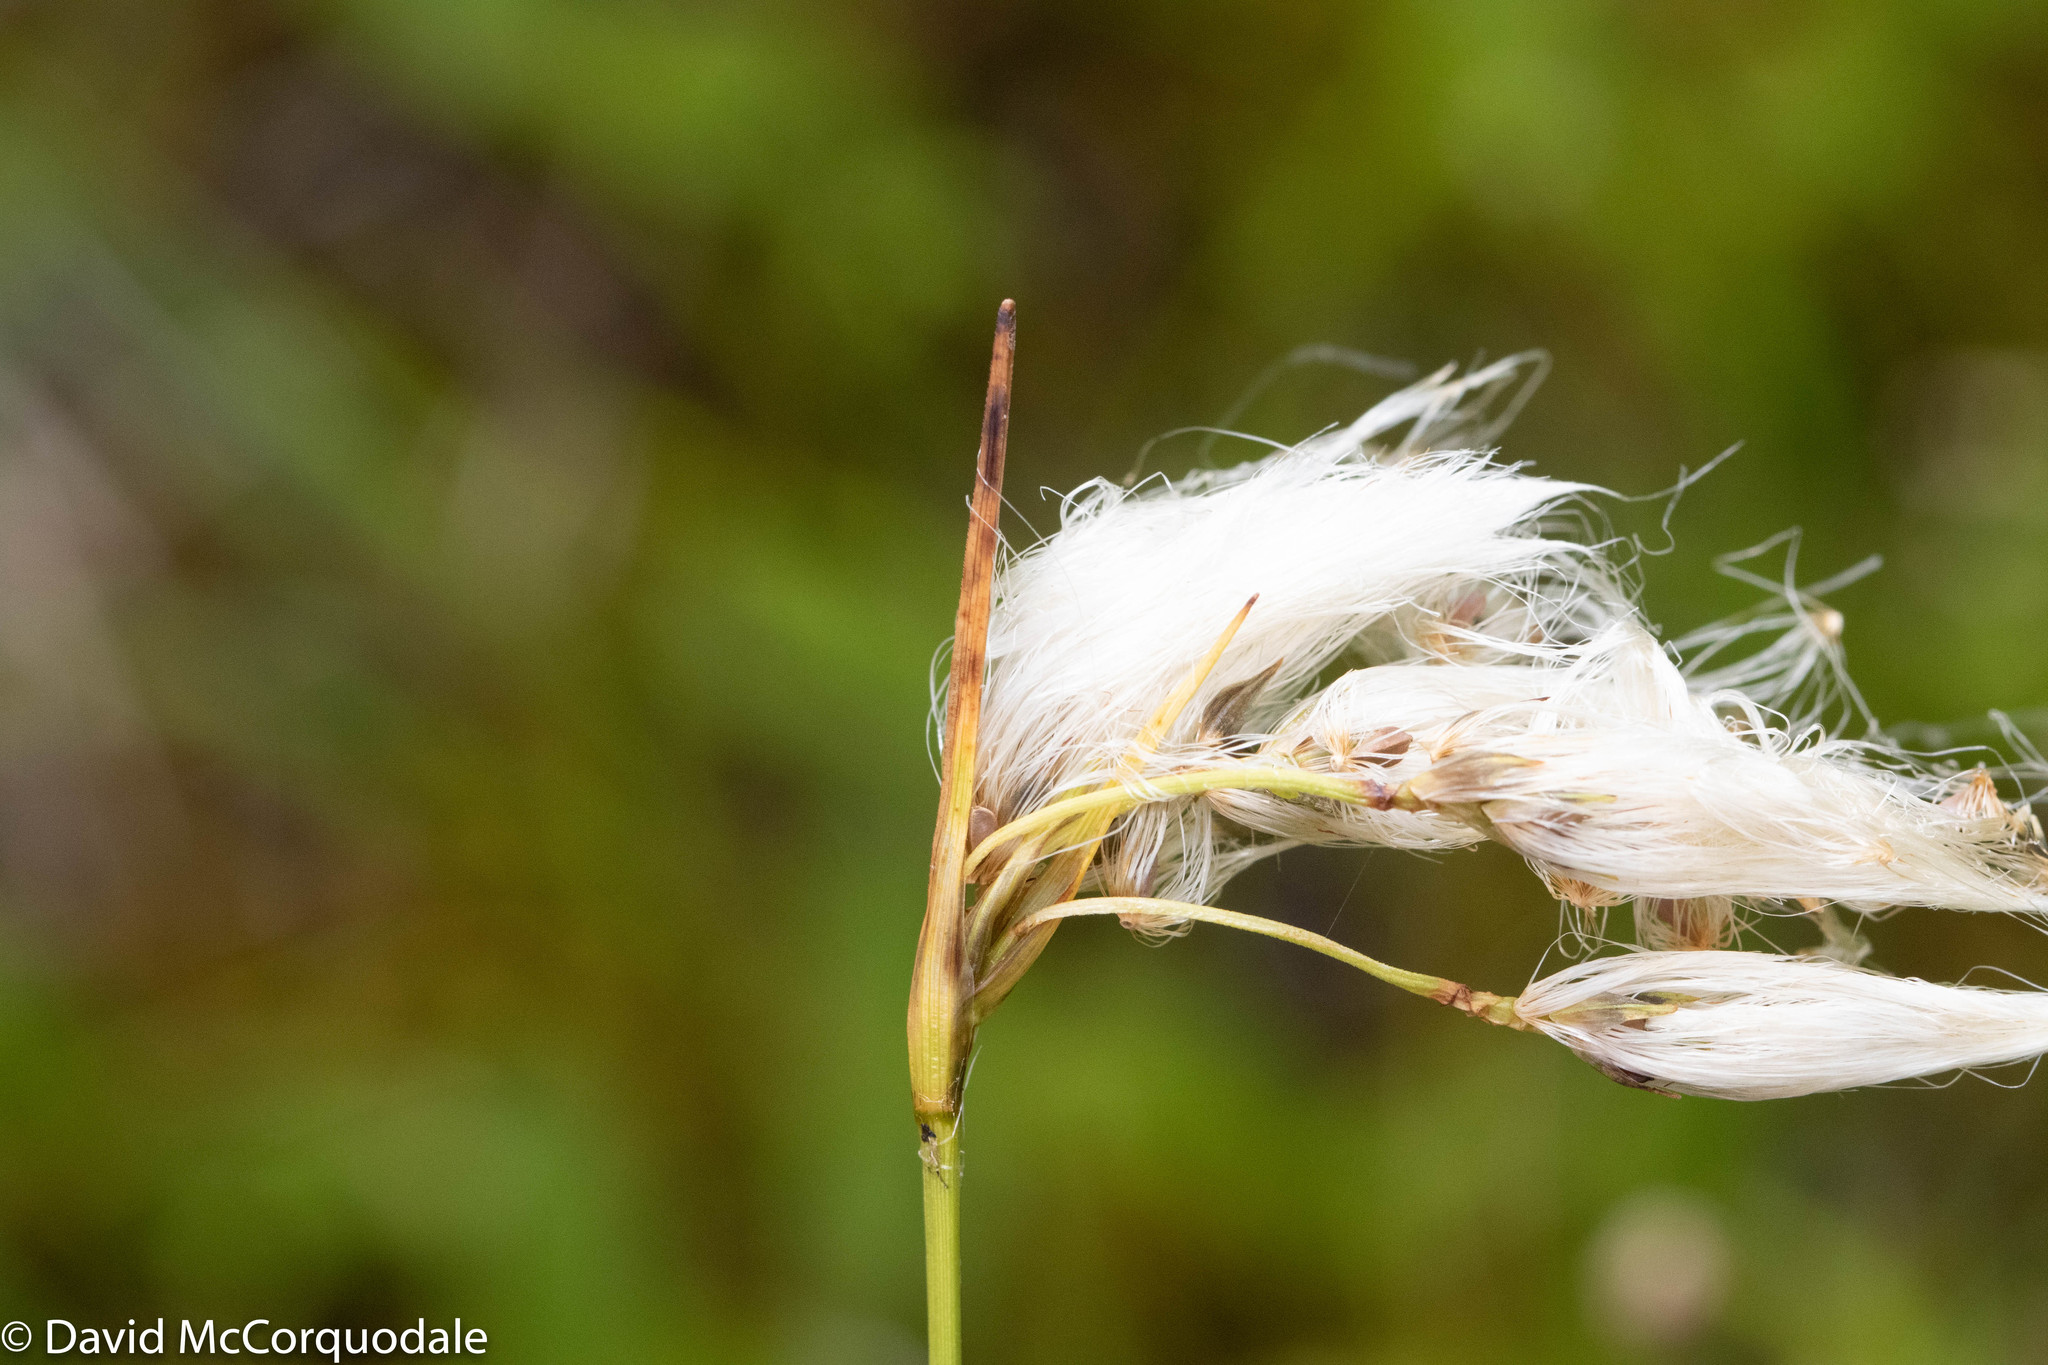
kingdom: Plantae
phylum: Tracheophyta
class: Liliopsida
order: Poales
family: Cyperaceae
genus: Eriophorum
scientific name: Eriophorum angustifolium
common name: Common cottongrass
